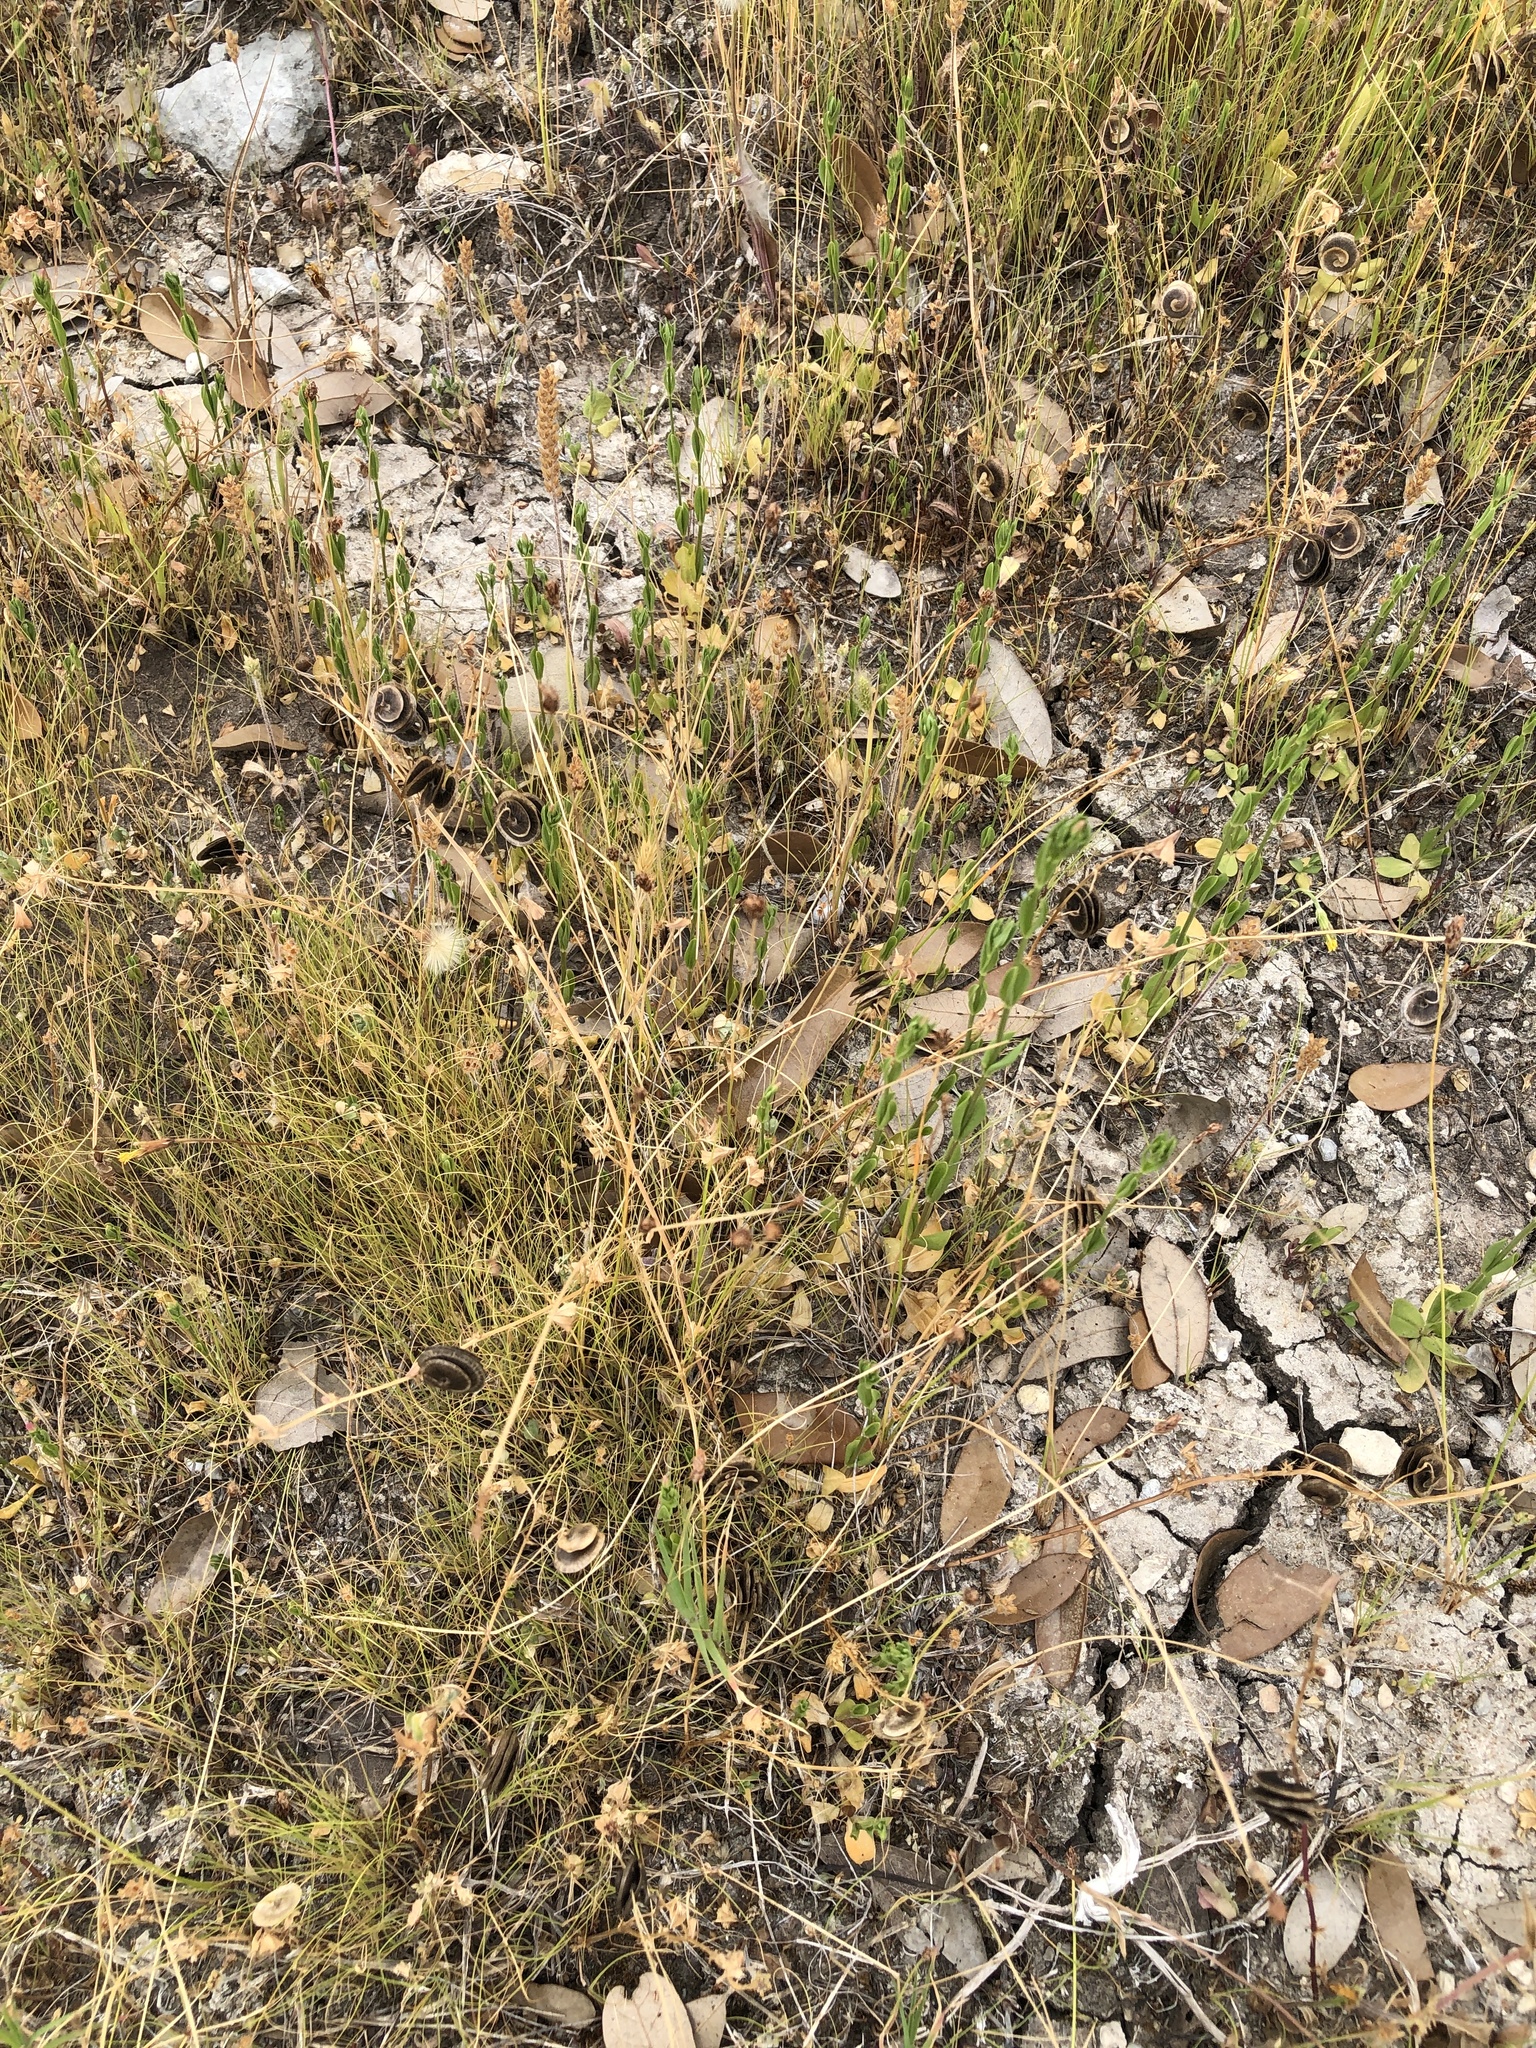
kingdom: Plantae
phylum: Tracheophyta
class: Magnoliopsida
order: Fabales
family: Fabaceae
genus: Medicago
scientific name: Medicago orbicularis
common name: Button medick
